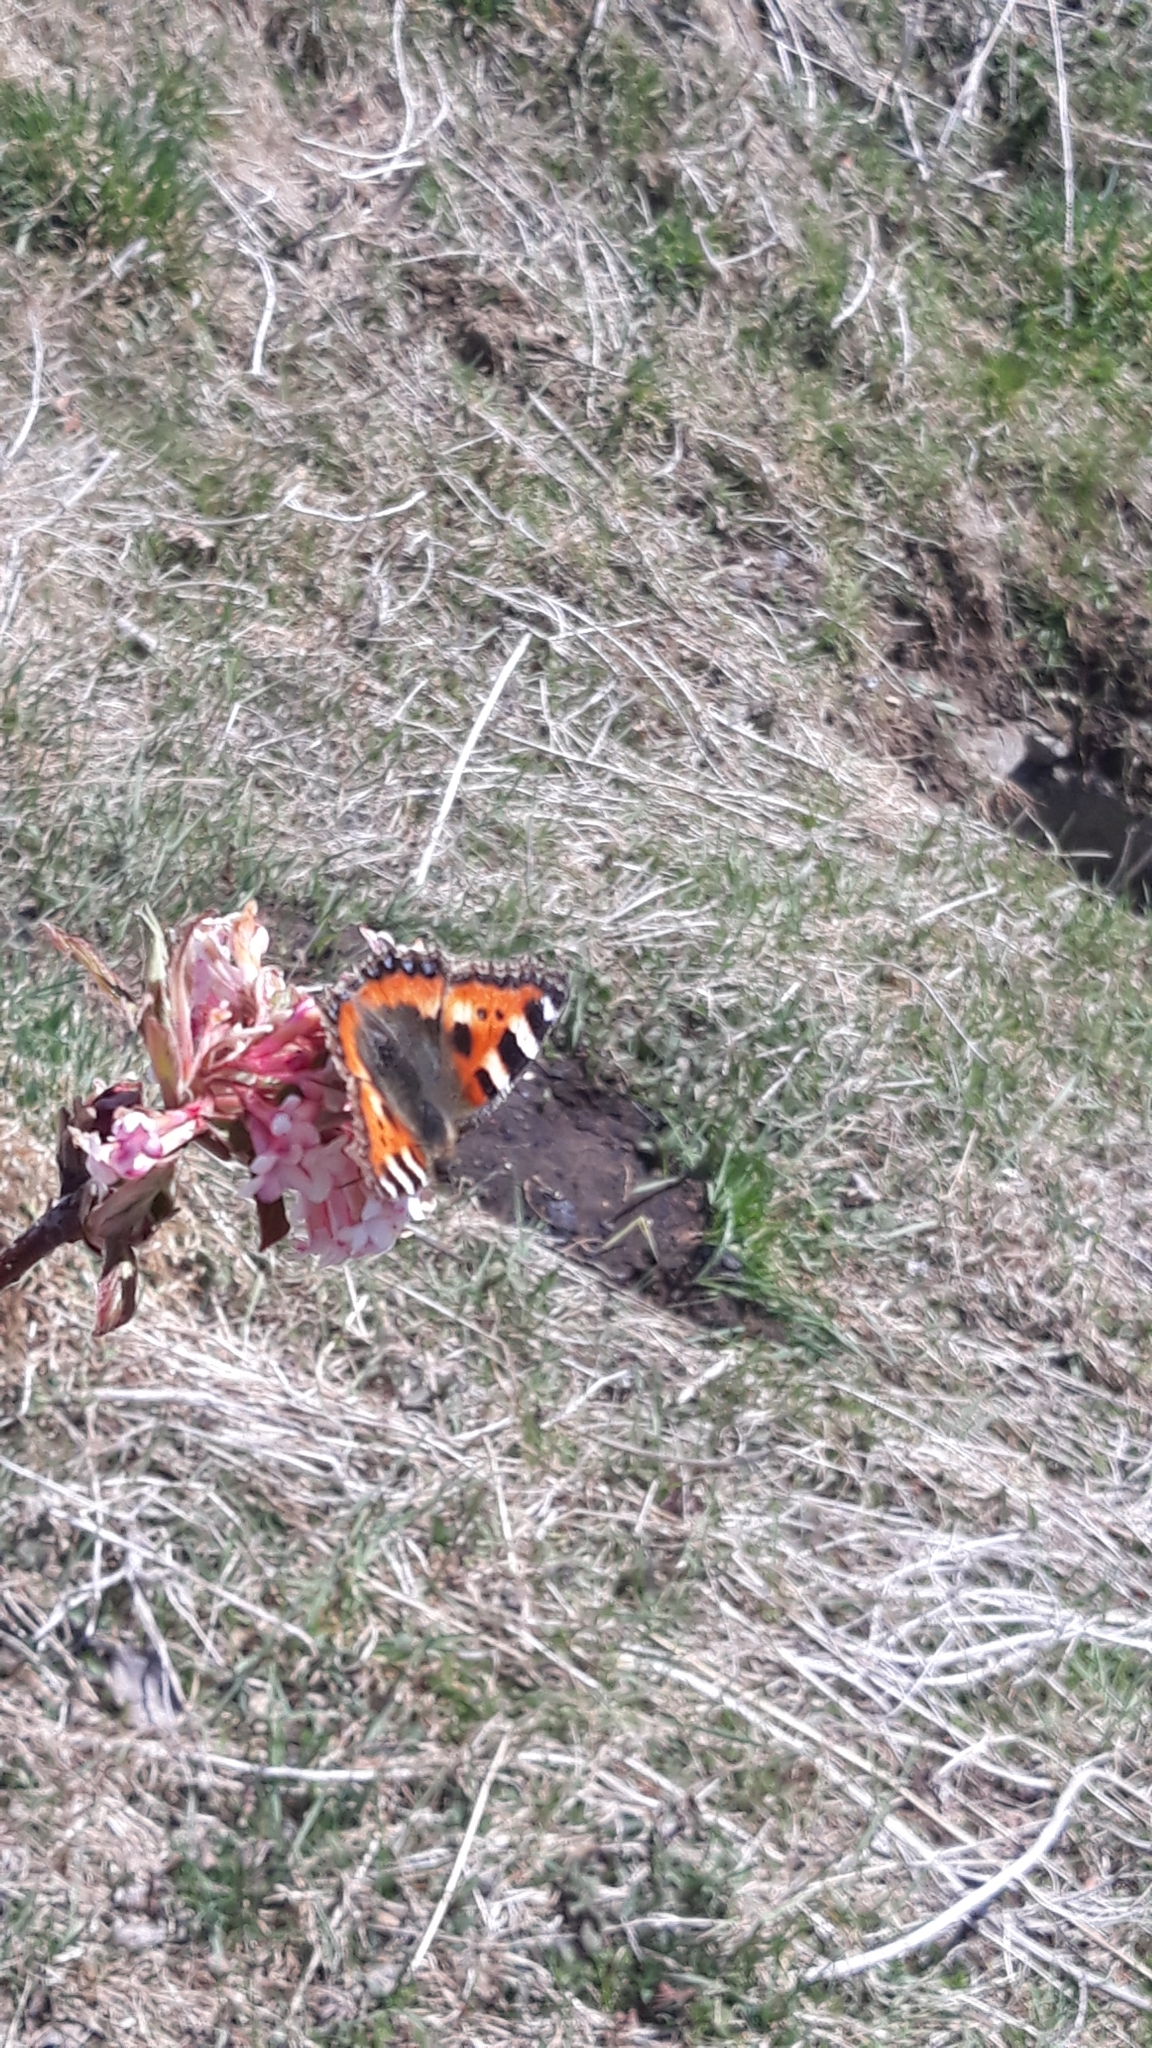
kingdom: Animalia
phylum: Arthropoda
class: Insecta
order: Lepidoptera
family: Nymphalidae
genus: Aglais
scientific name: Aglais urticae
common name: Small tortoiseshell
